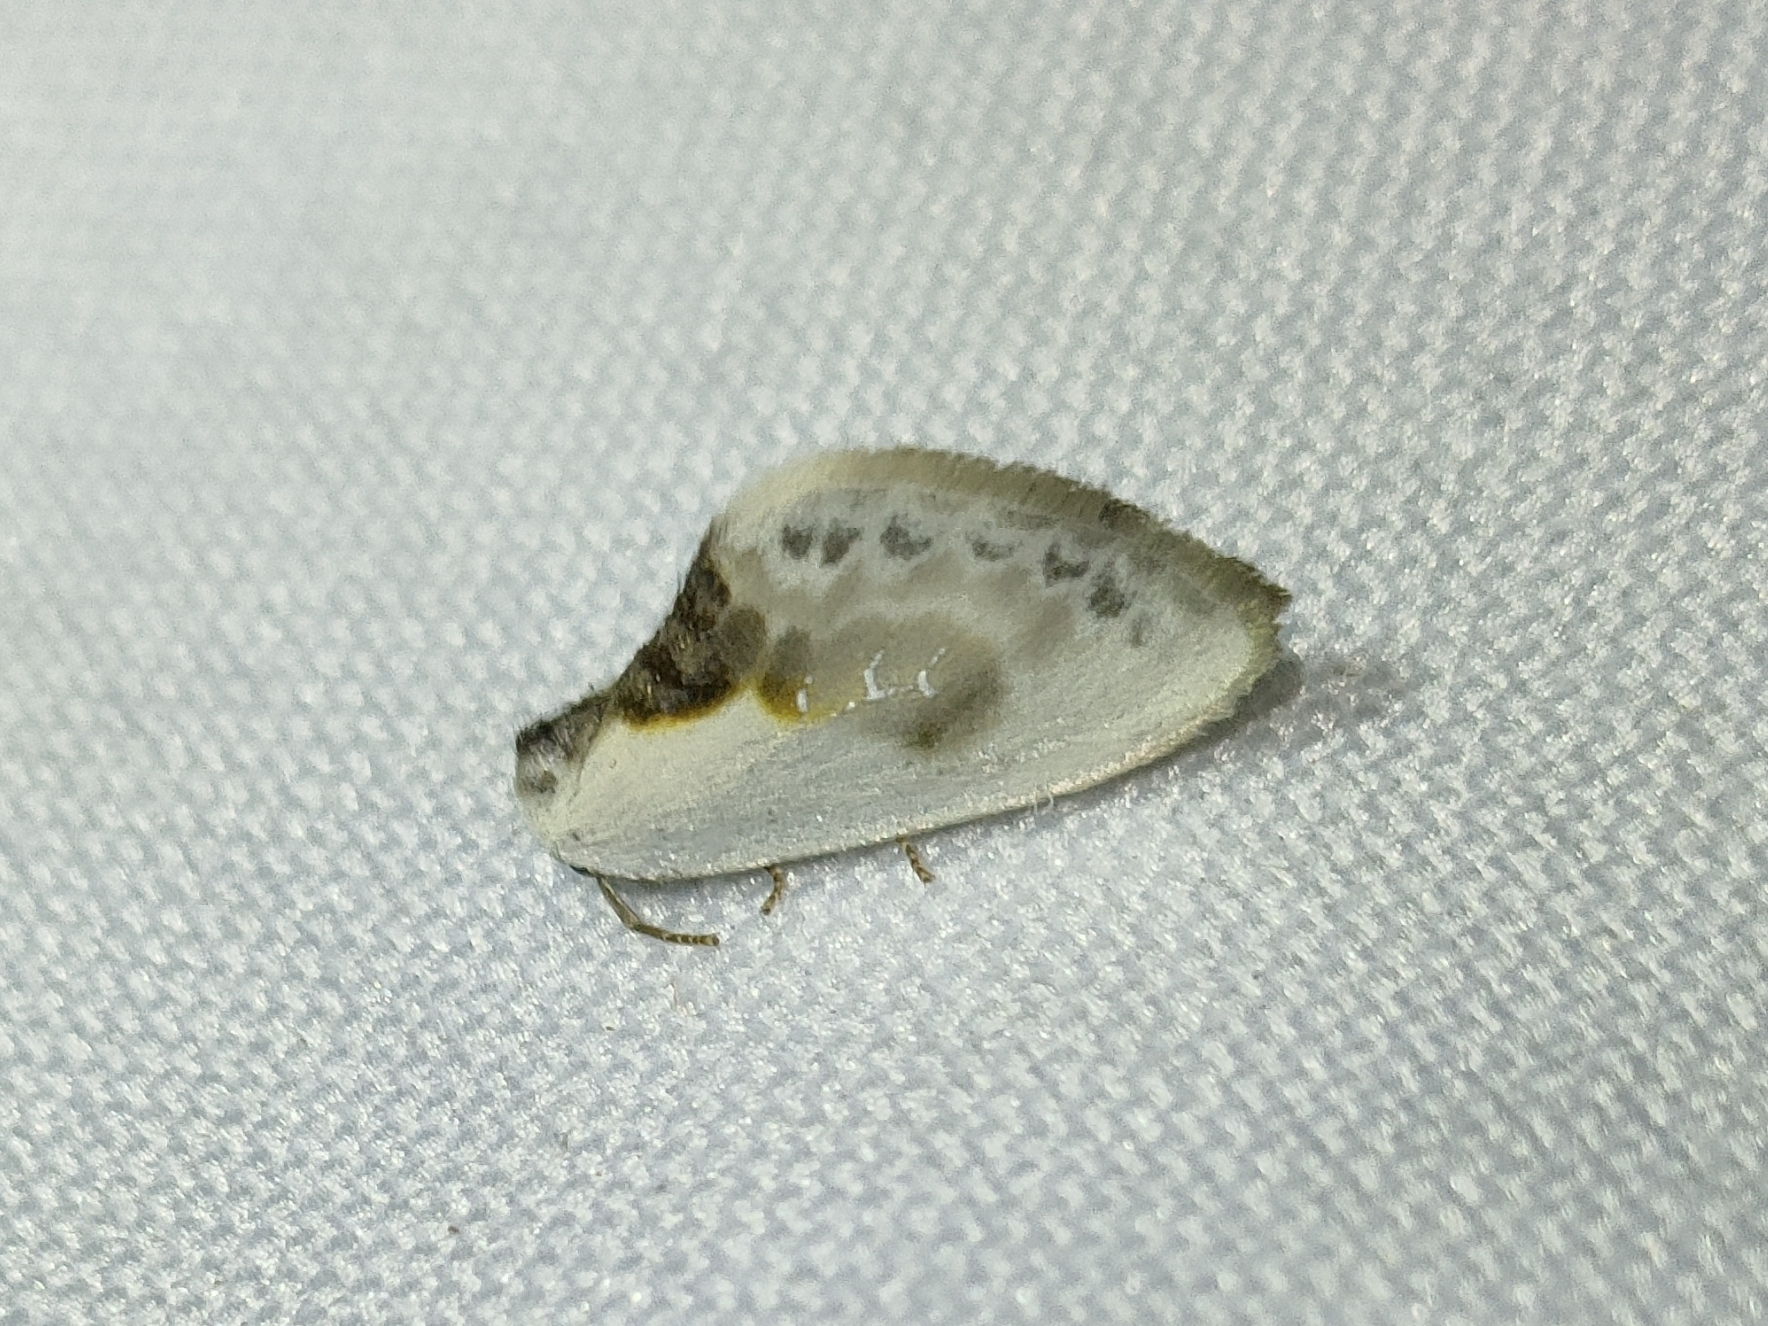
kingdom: Animalia
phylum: Arthropoda
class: Insecta
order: Lepidoptera
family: Drepanidae
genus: Cilix
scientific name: Cilix glaucata
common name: Chinese character
